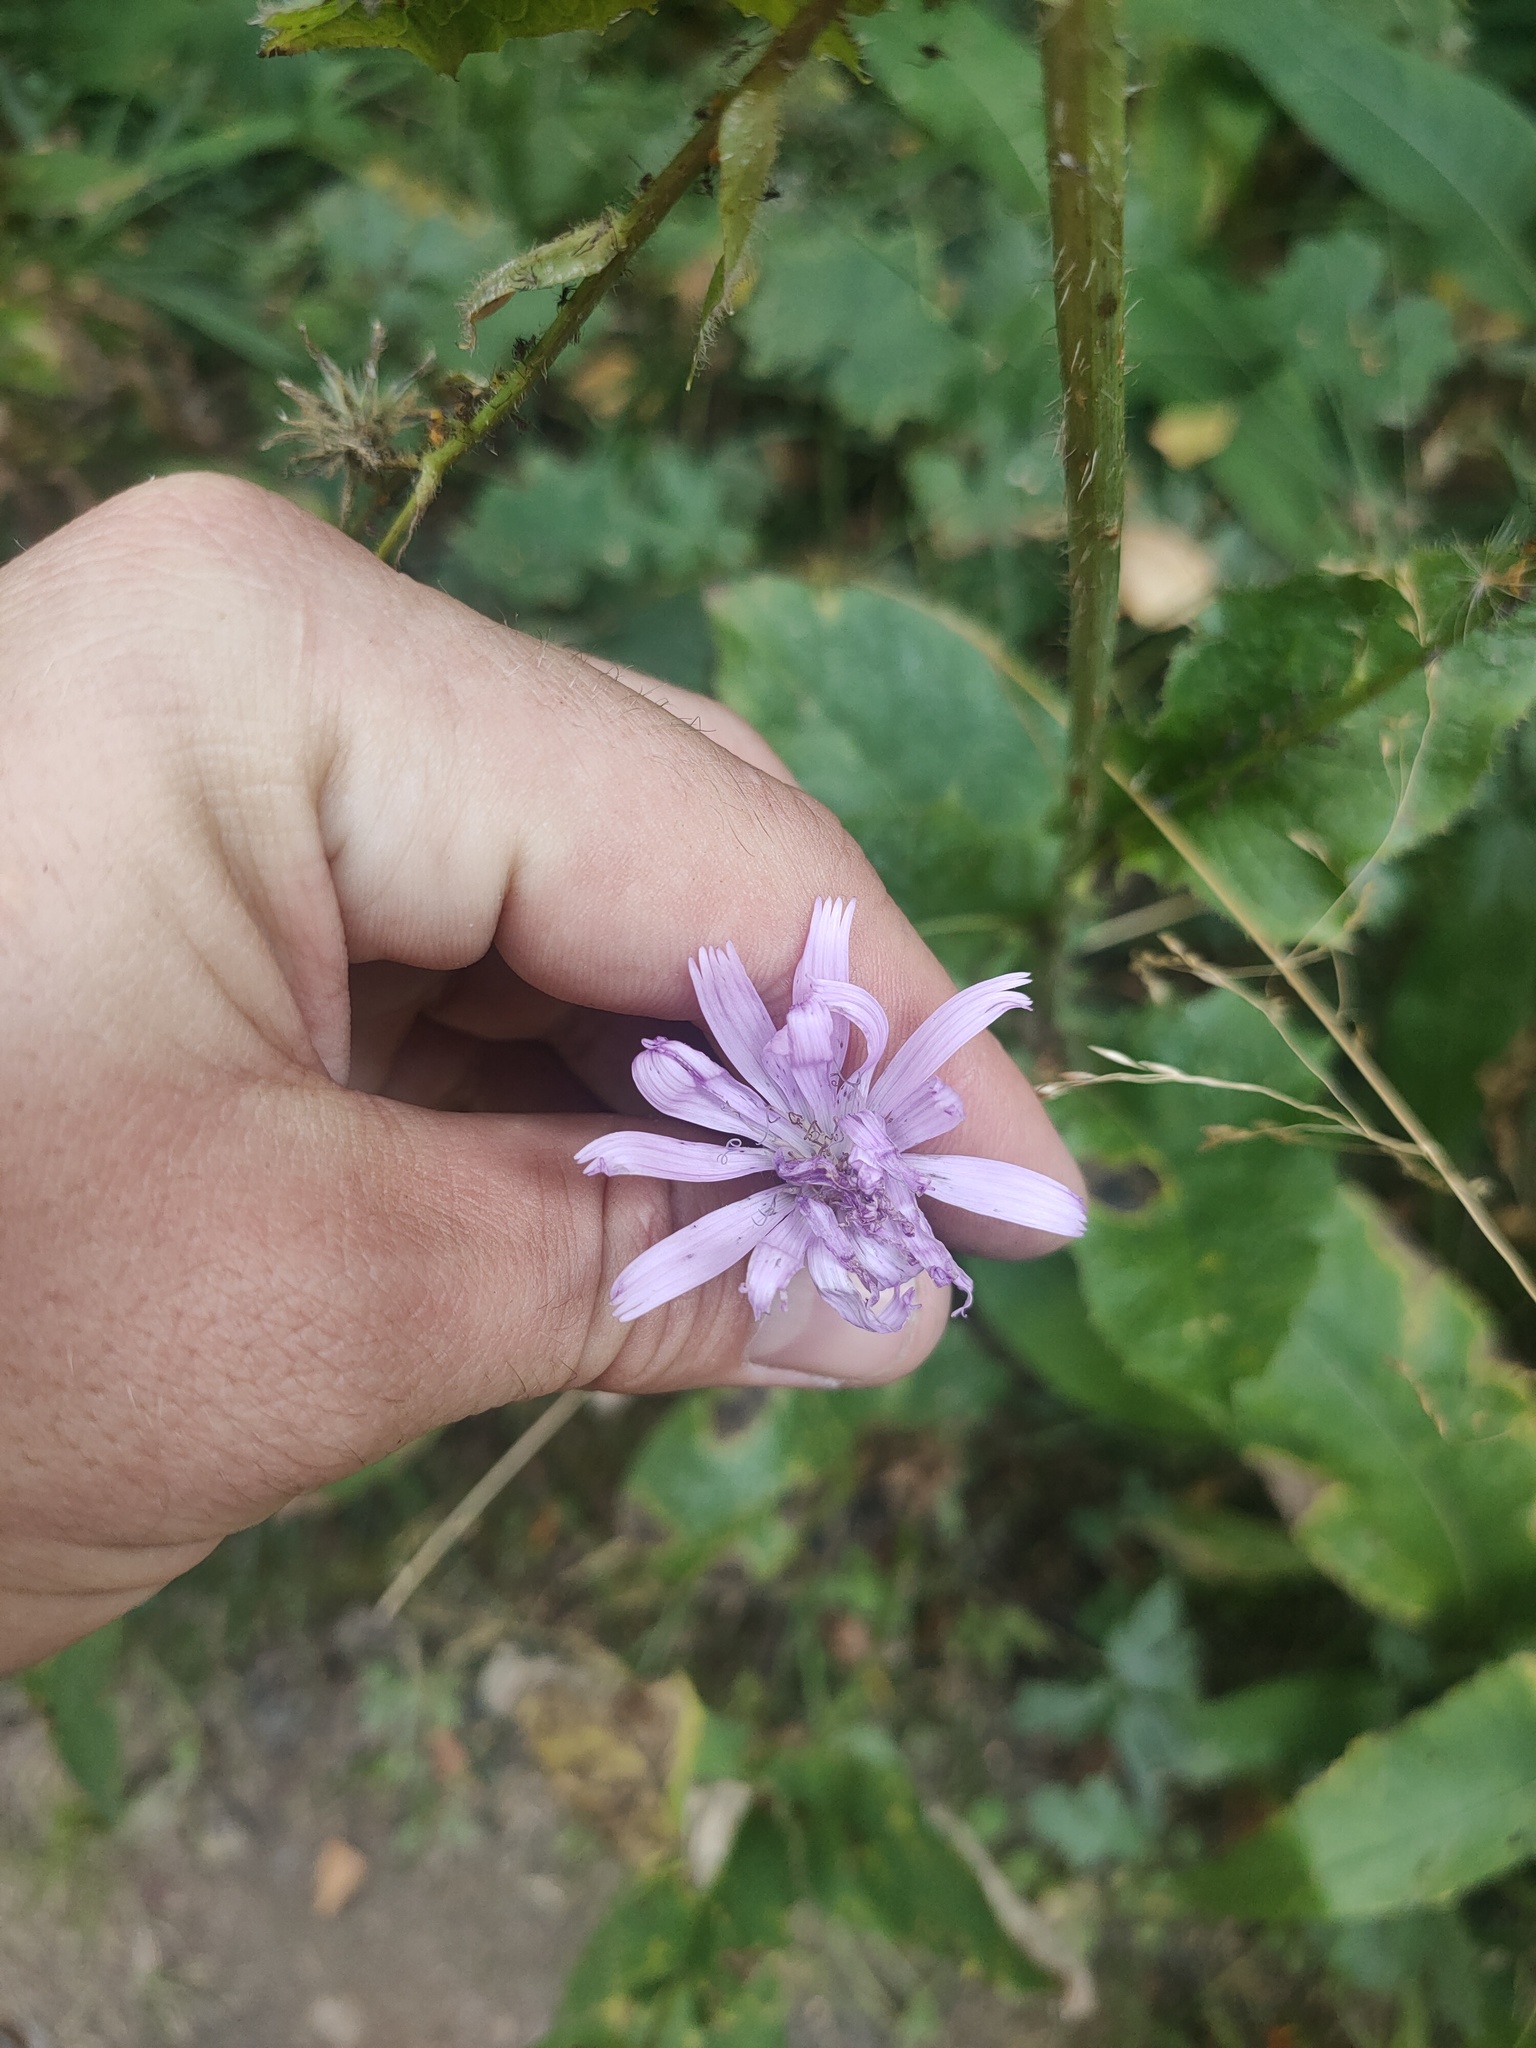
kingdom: Plantae
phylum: Tracheophyta
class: Magnoliopsida
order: Asterales
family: Asteraceae
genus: Lactuca
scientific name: Lactuca macrophylla
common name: Common blue-sow-thistle
